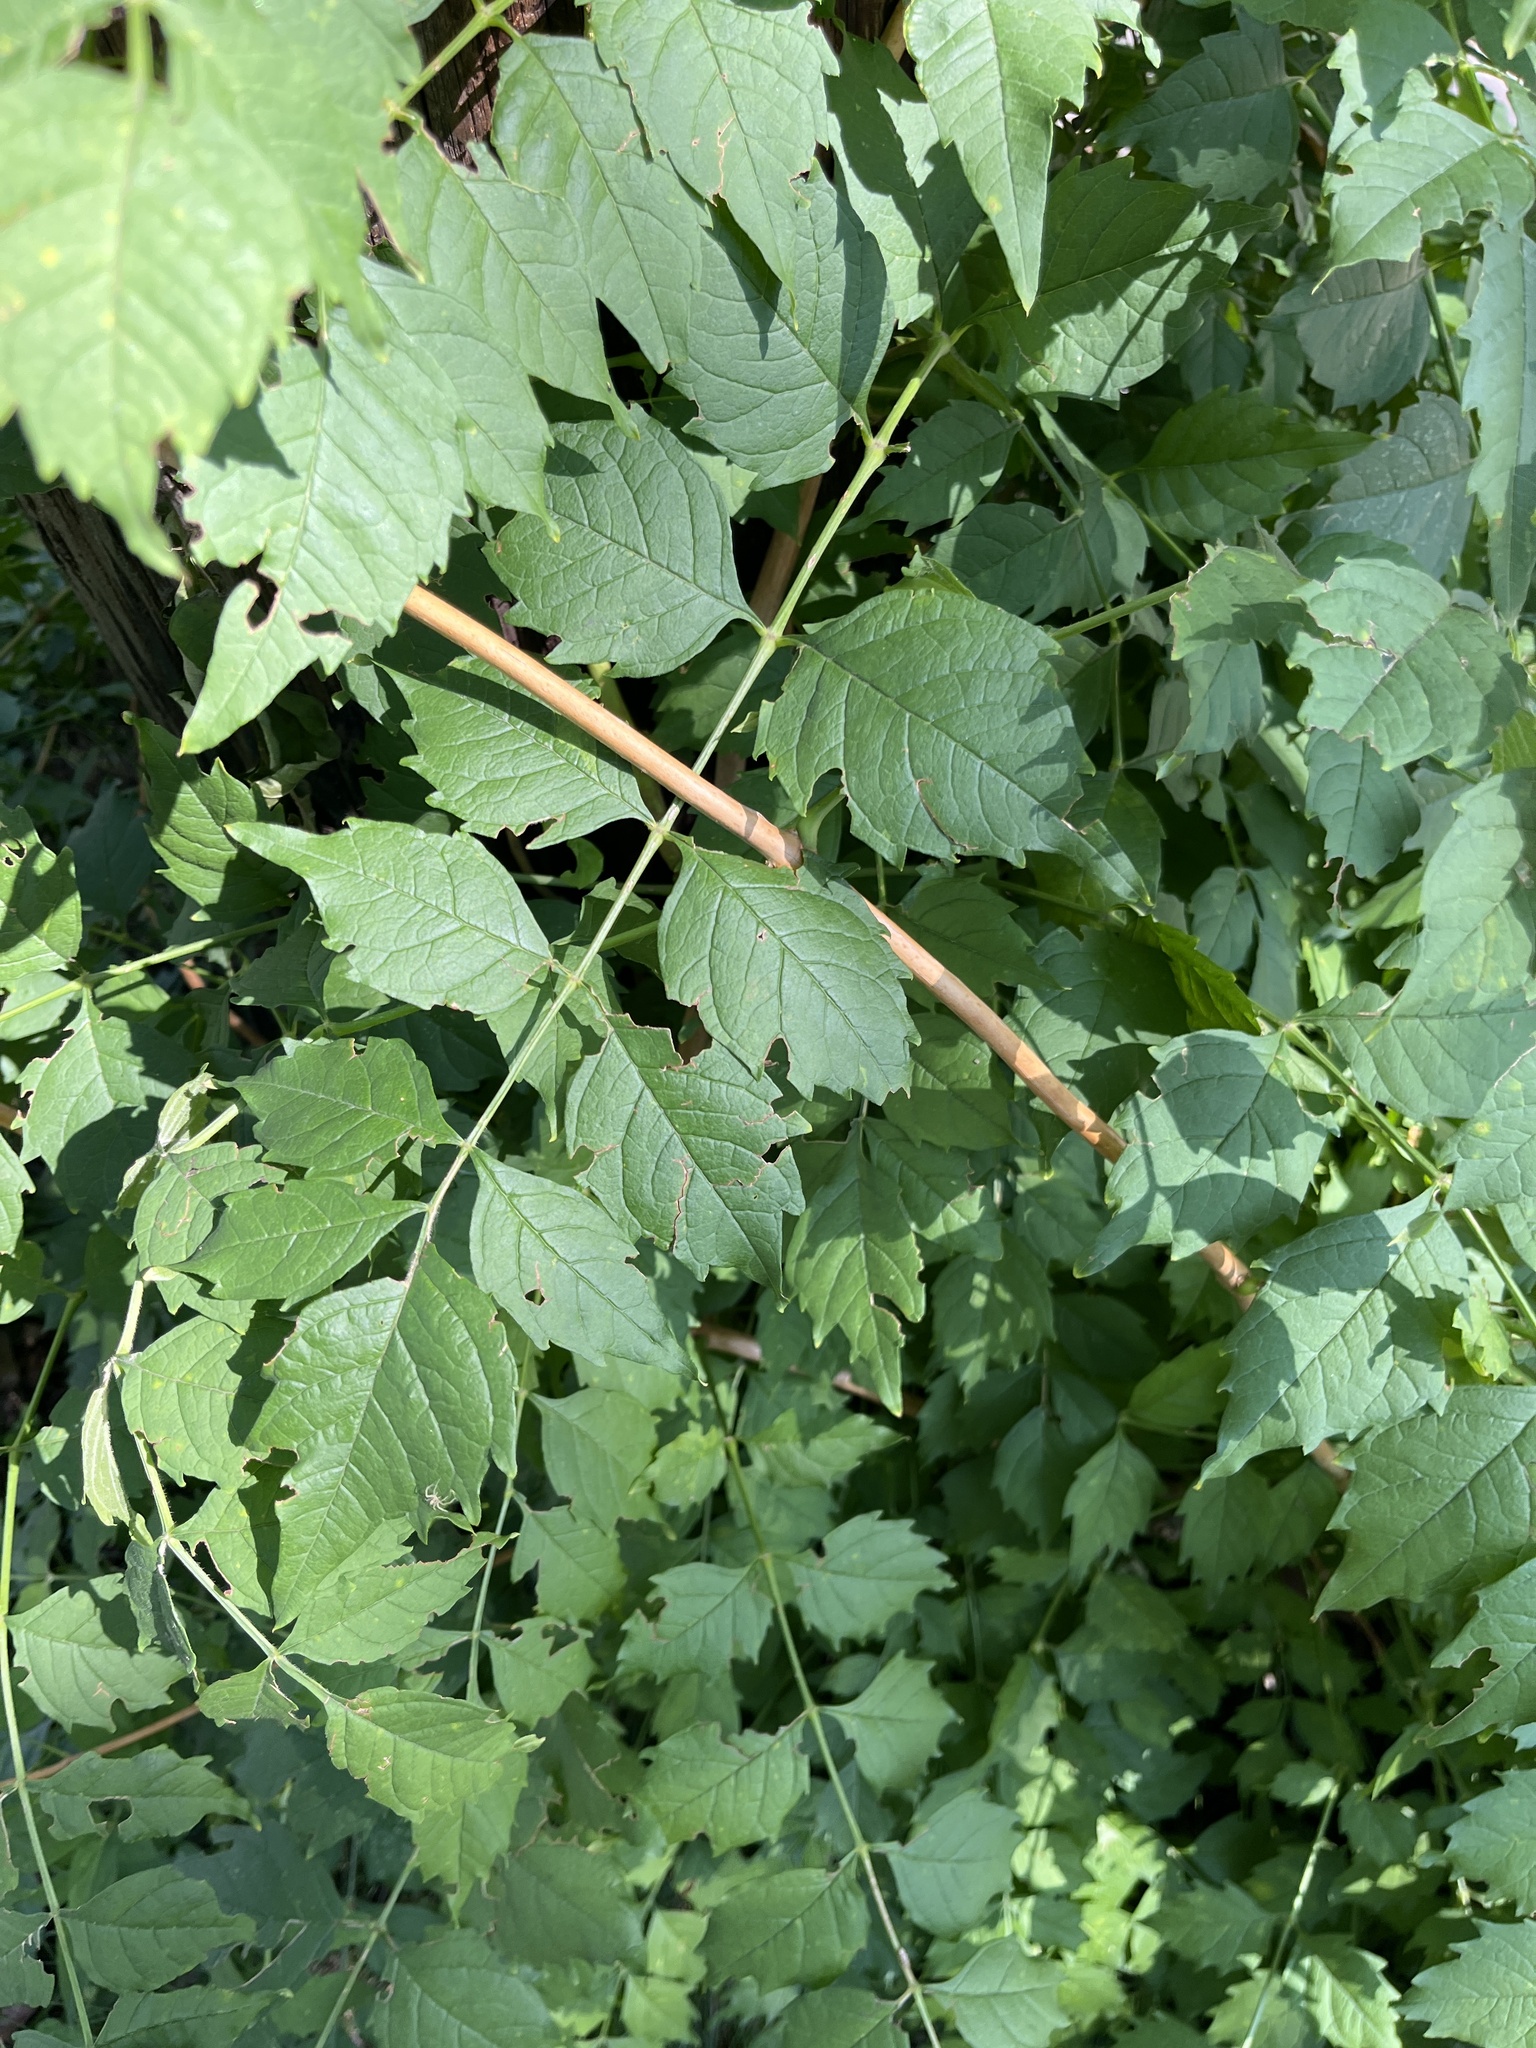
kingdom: Plantae
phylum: Tracheophyta
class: Magnoliopsida
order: Lamiales
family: Bignoniaceae
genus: Campsis
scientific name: Campsis radicans
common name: Trumpet-creeper
